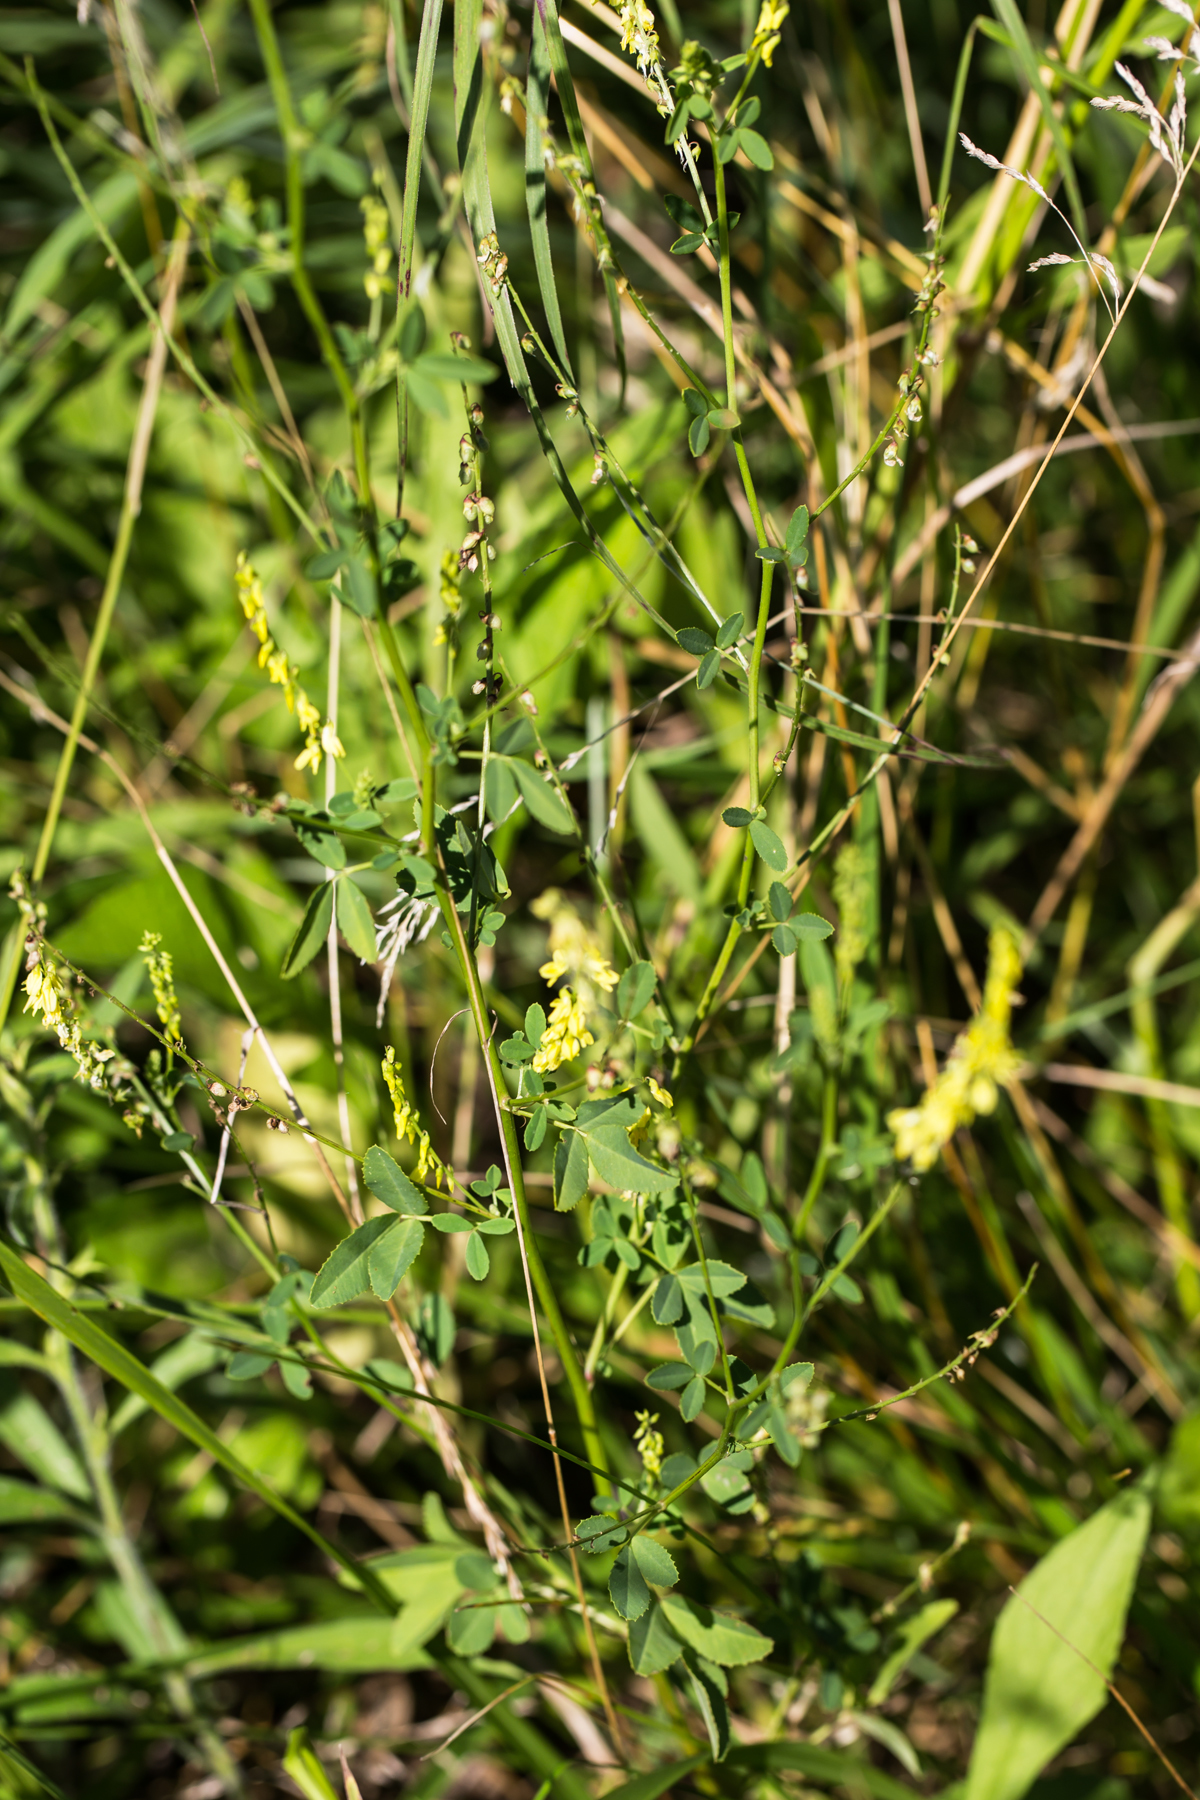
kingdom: Plantae
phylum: Tracheophyta
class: Magnoliopsida
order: Fabales
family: Fabaceae
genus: Melilotus
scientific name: Melilotus officinalis
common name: Sweetclover
